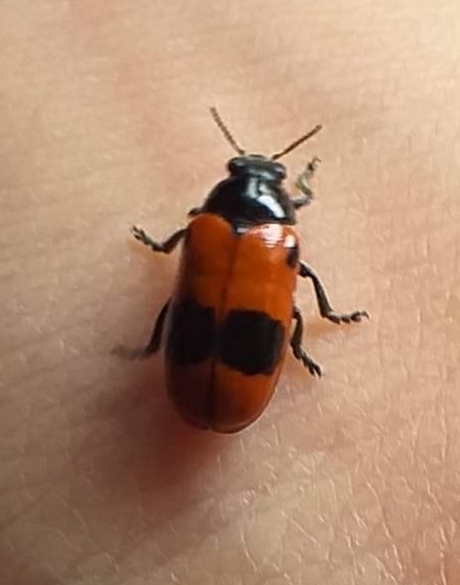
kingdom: Animalia
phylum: Arthropoda
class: Insecta
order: Coleoptera
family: Chrysomelidae
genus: Clytra
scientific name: Clytra laeviuscula
